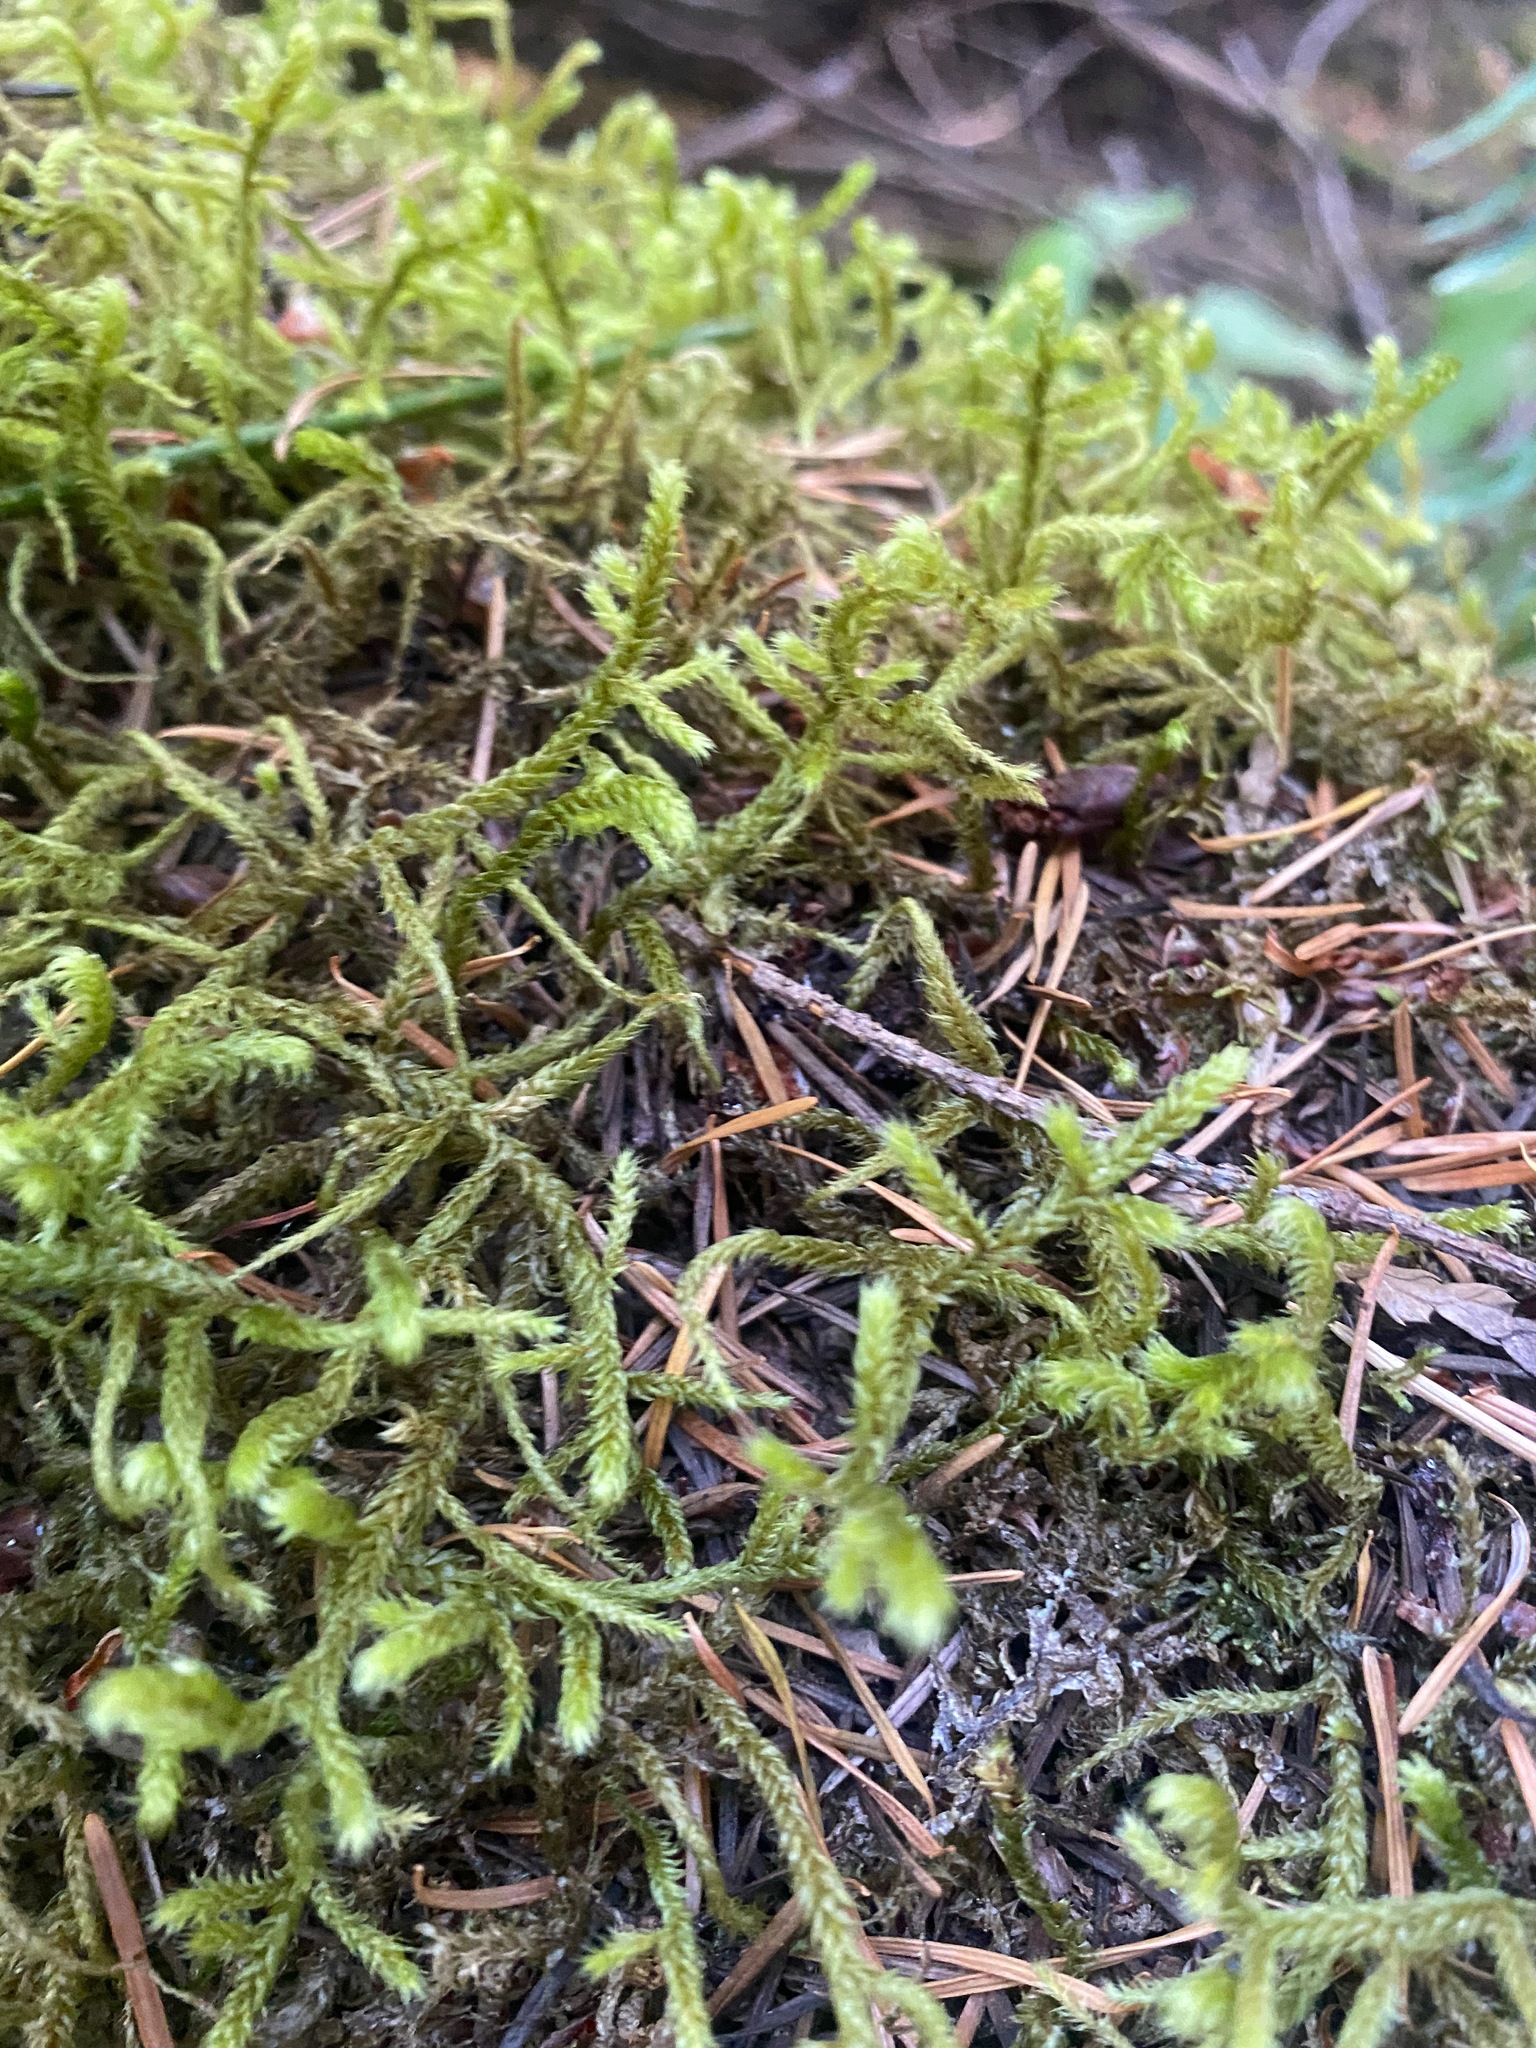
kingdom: Plantae
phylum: Bryophyta
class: Bryopsida
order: Hypnales
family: Antitrichiaceae
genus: Antitrichia
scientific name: Antitrichia curtipendula
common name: Pendulous wing-moss
